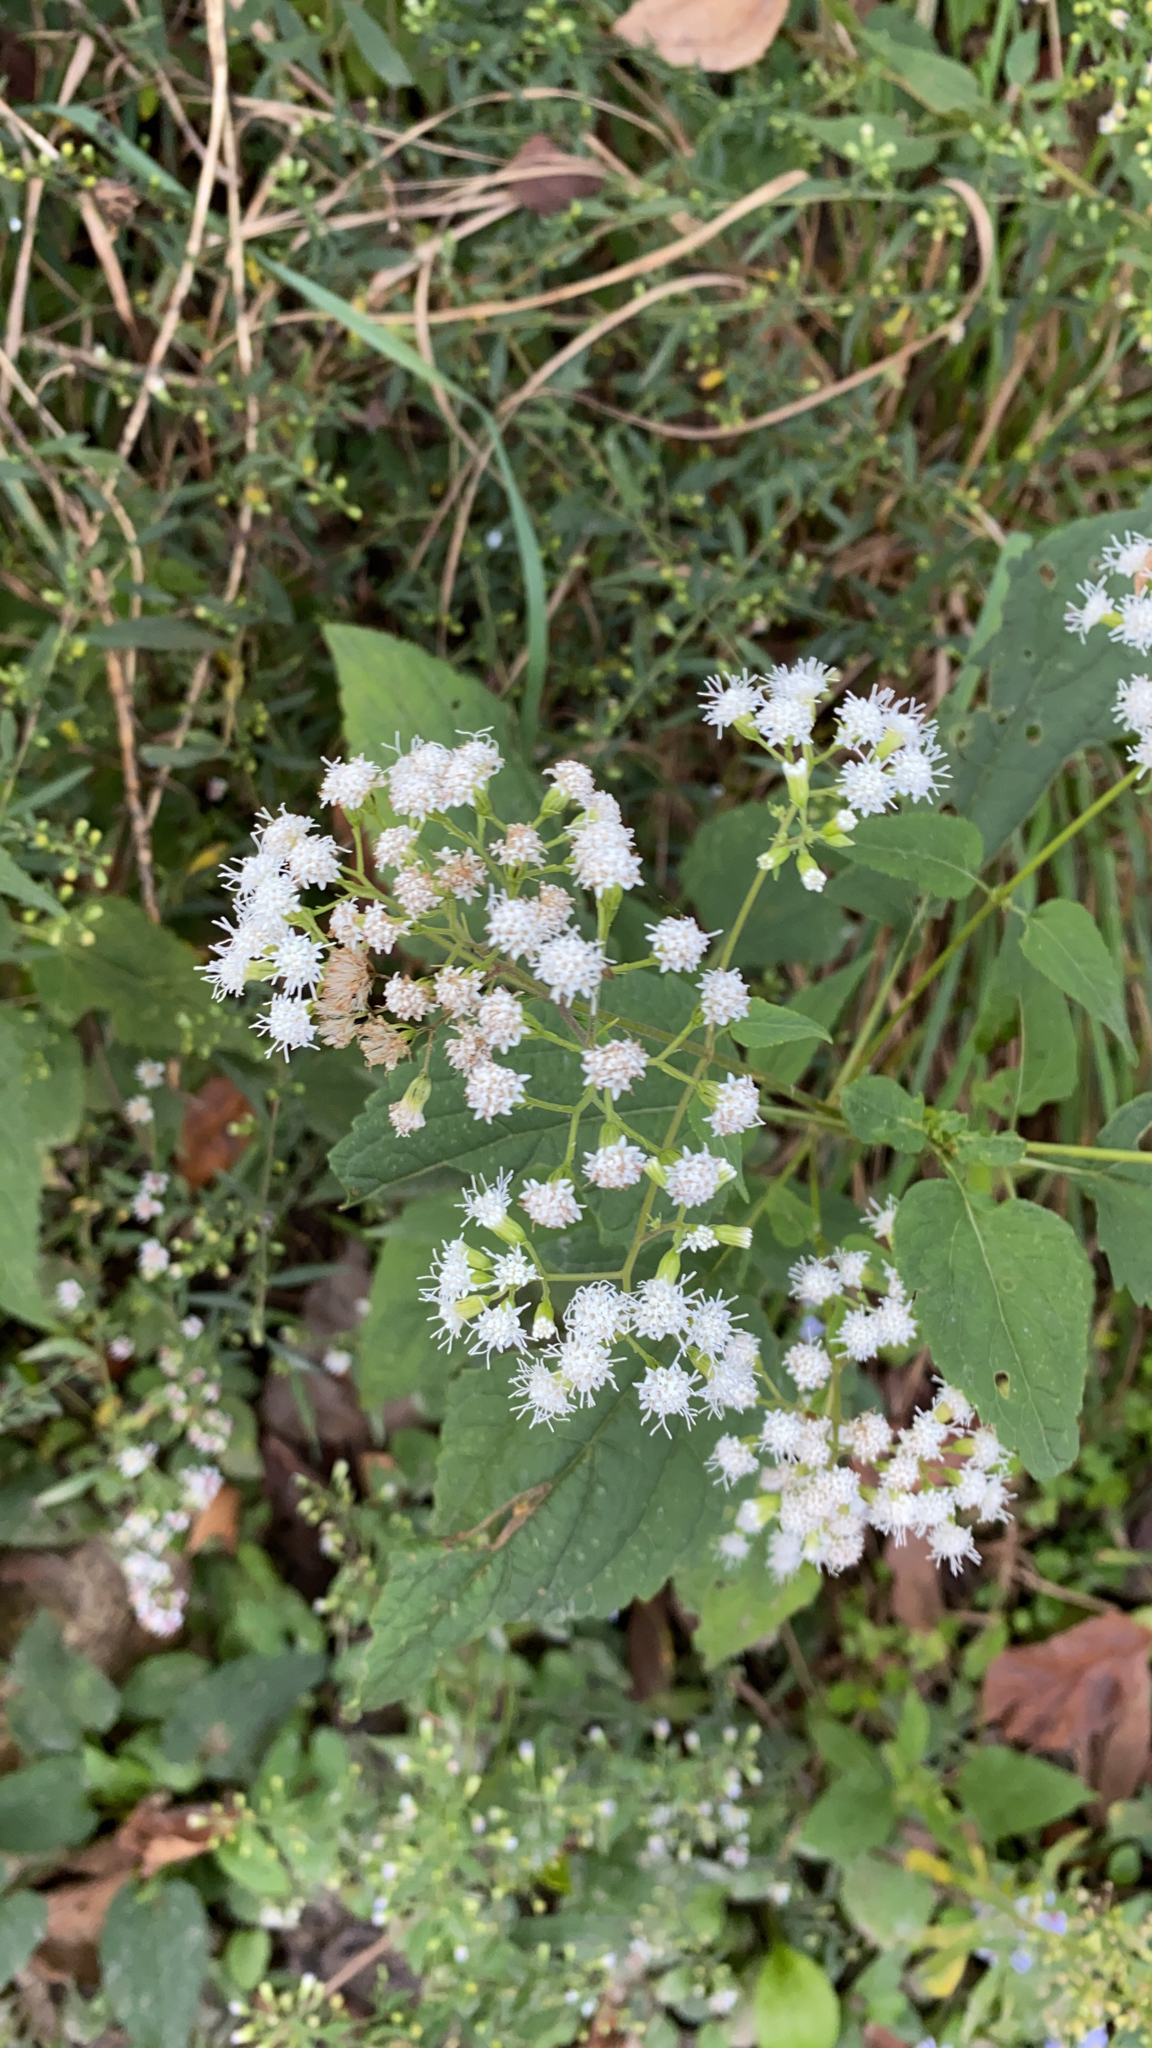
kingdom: Plantae
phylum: Tracheophyta
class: Magnoliopsida
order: Asterales
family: Asteraceae
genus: Ageratina
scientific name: Ageratina altissima
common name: White snakeroot
